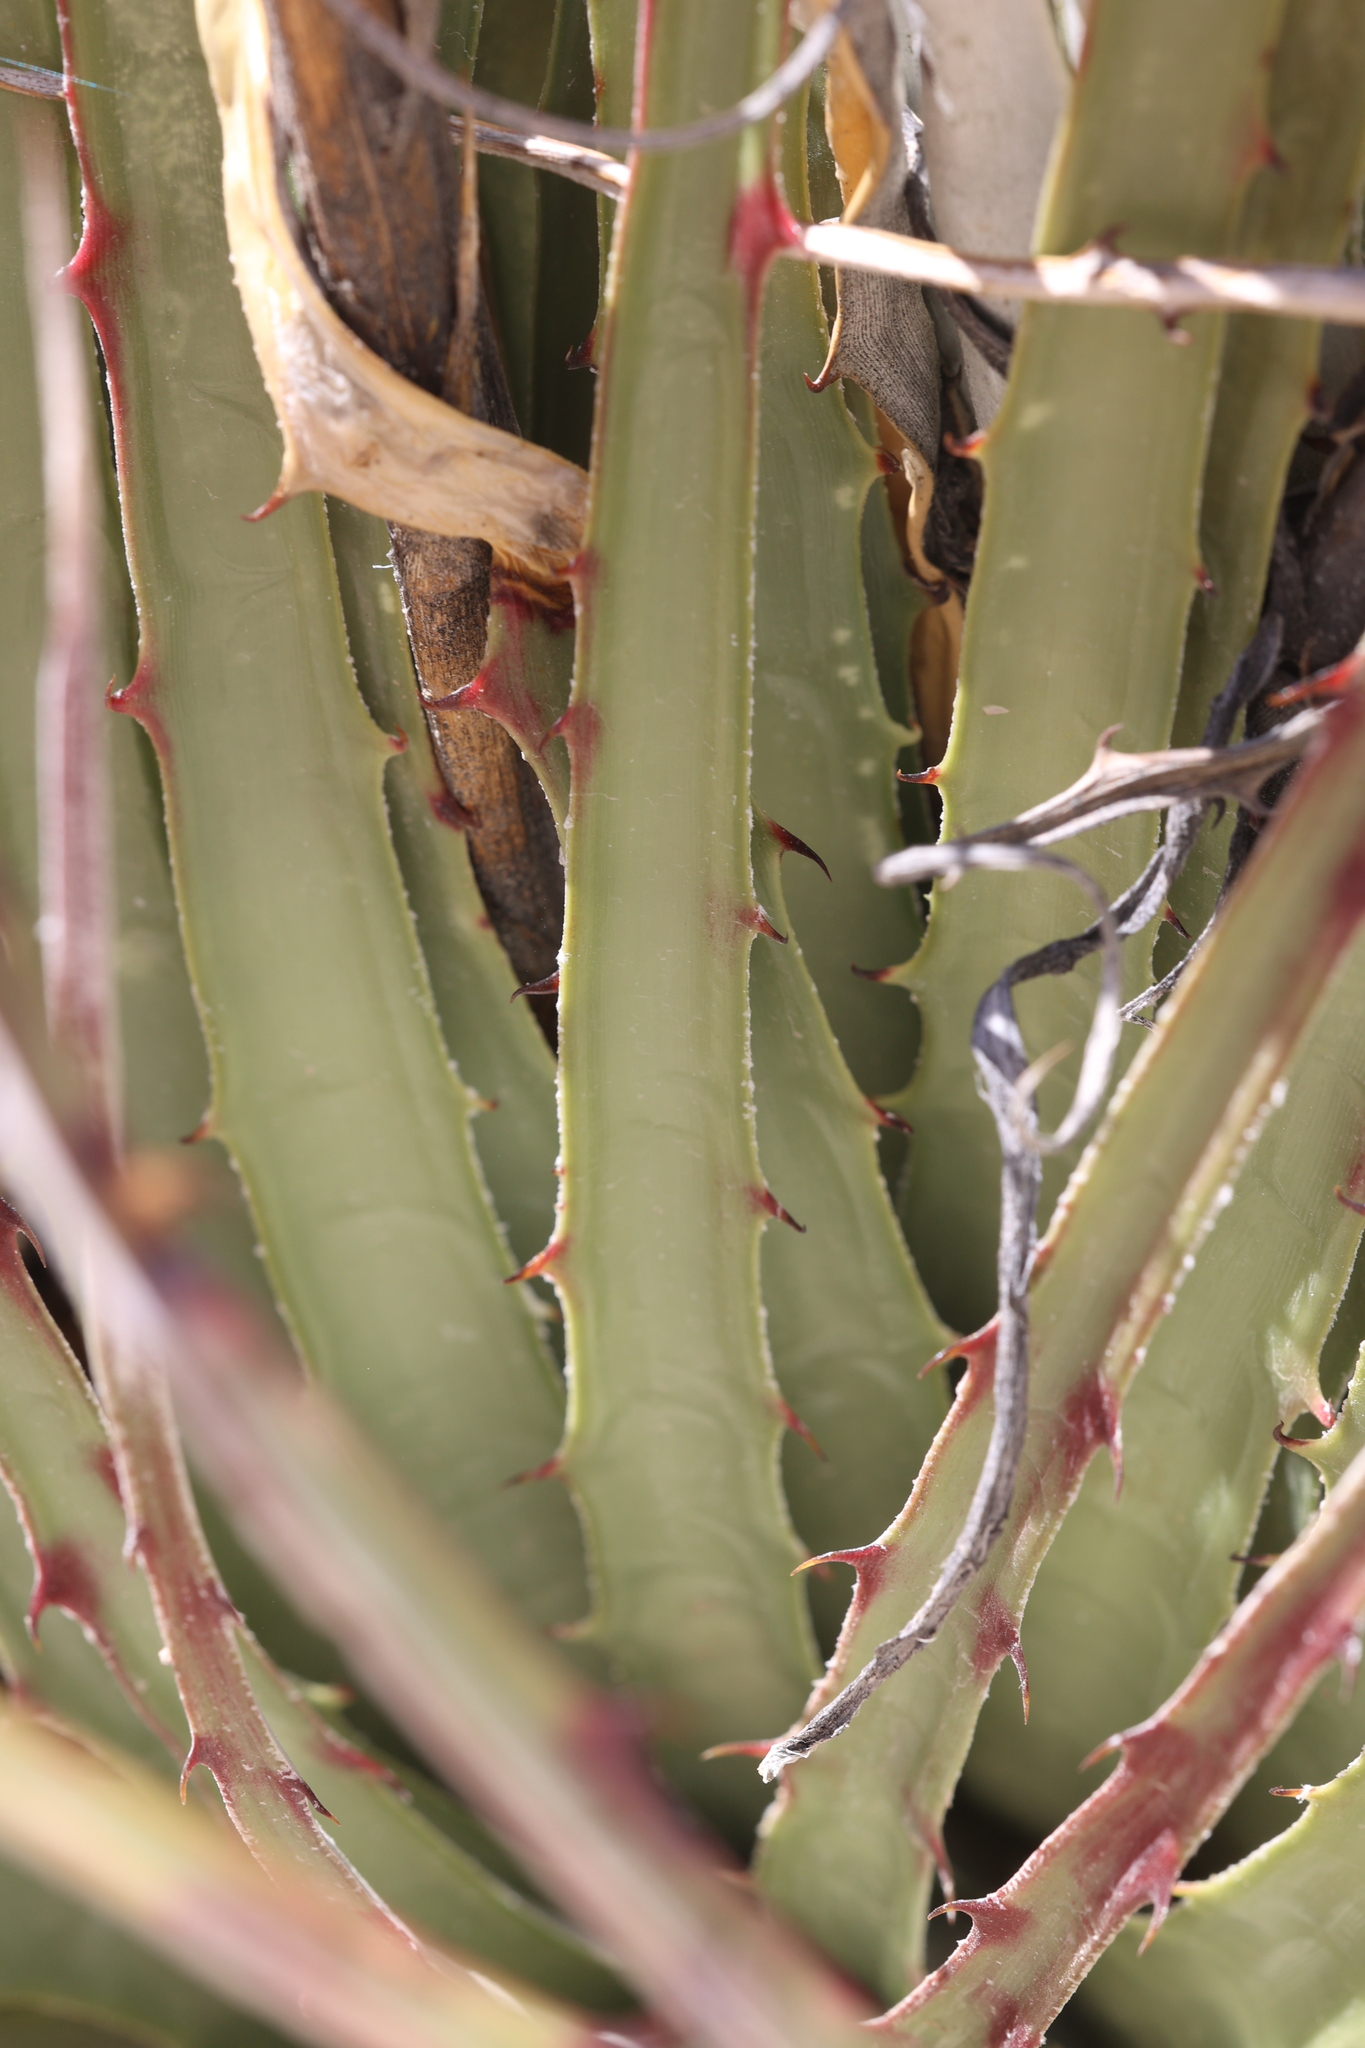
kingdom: Plantae
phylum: Tracheophyta
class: Liliopsida
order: Poales
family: Bromeliaceae
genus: Hechtia
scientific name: Hechtia texensis
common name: False agave
